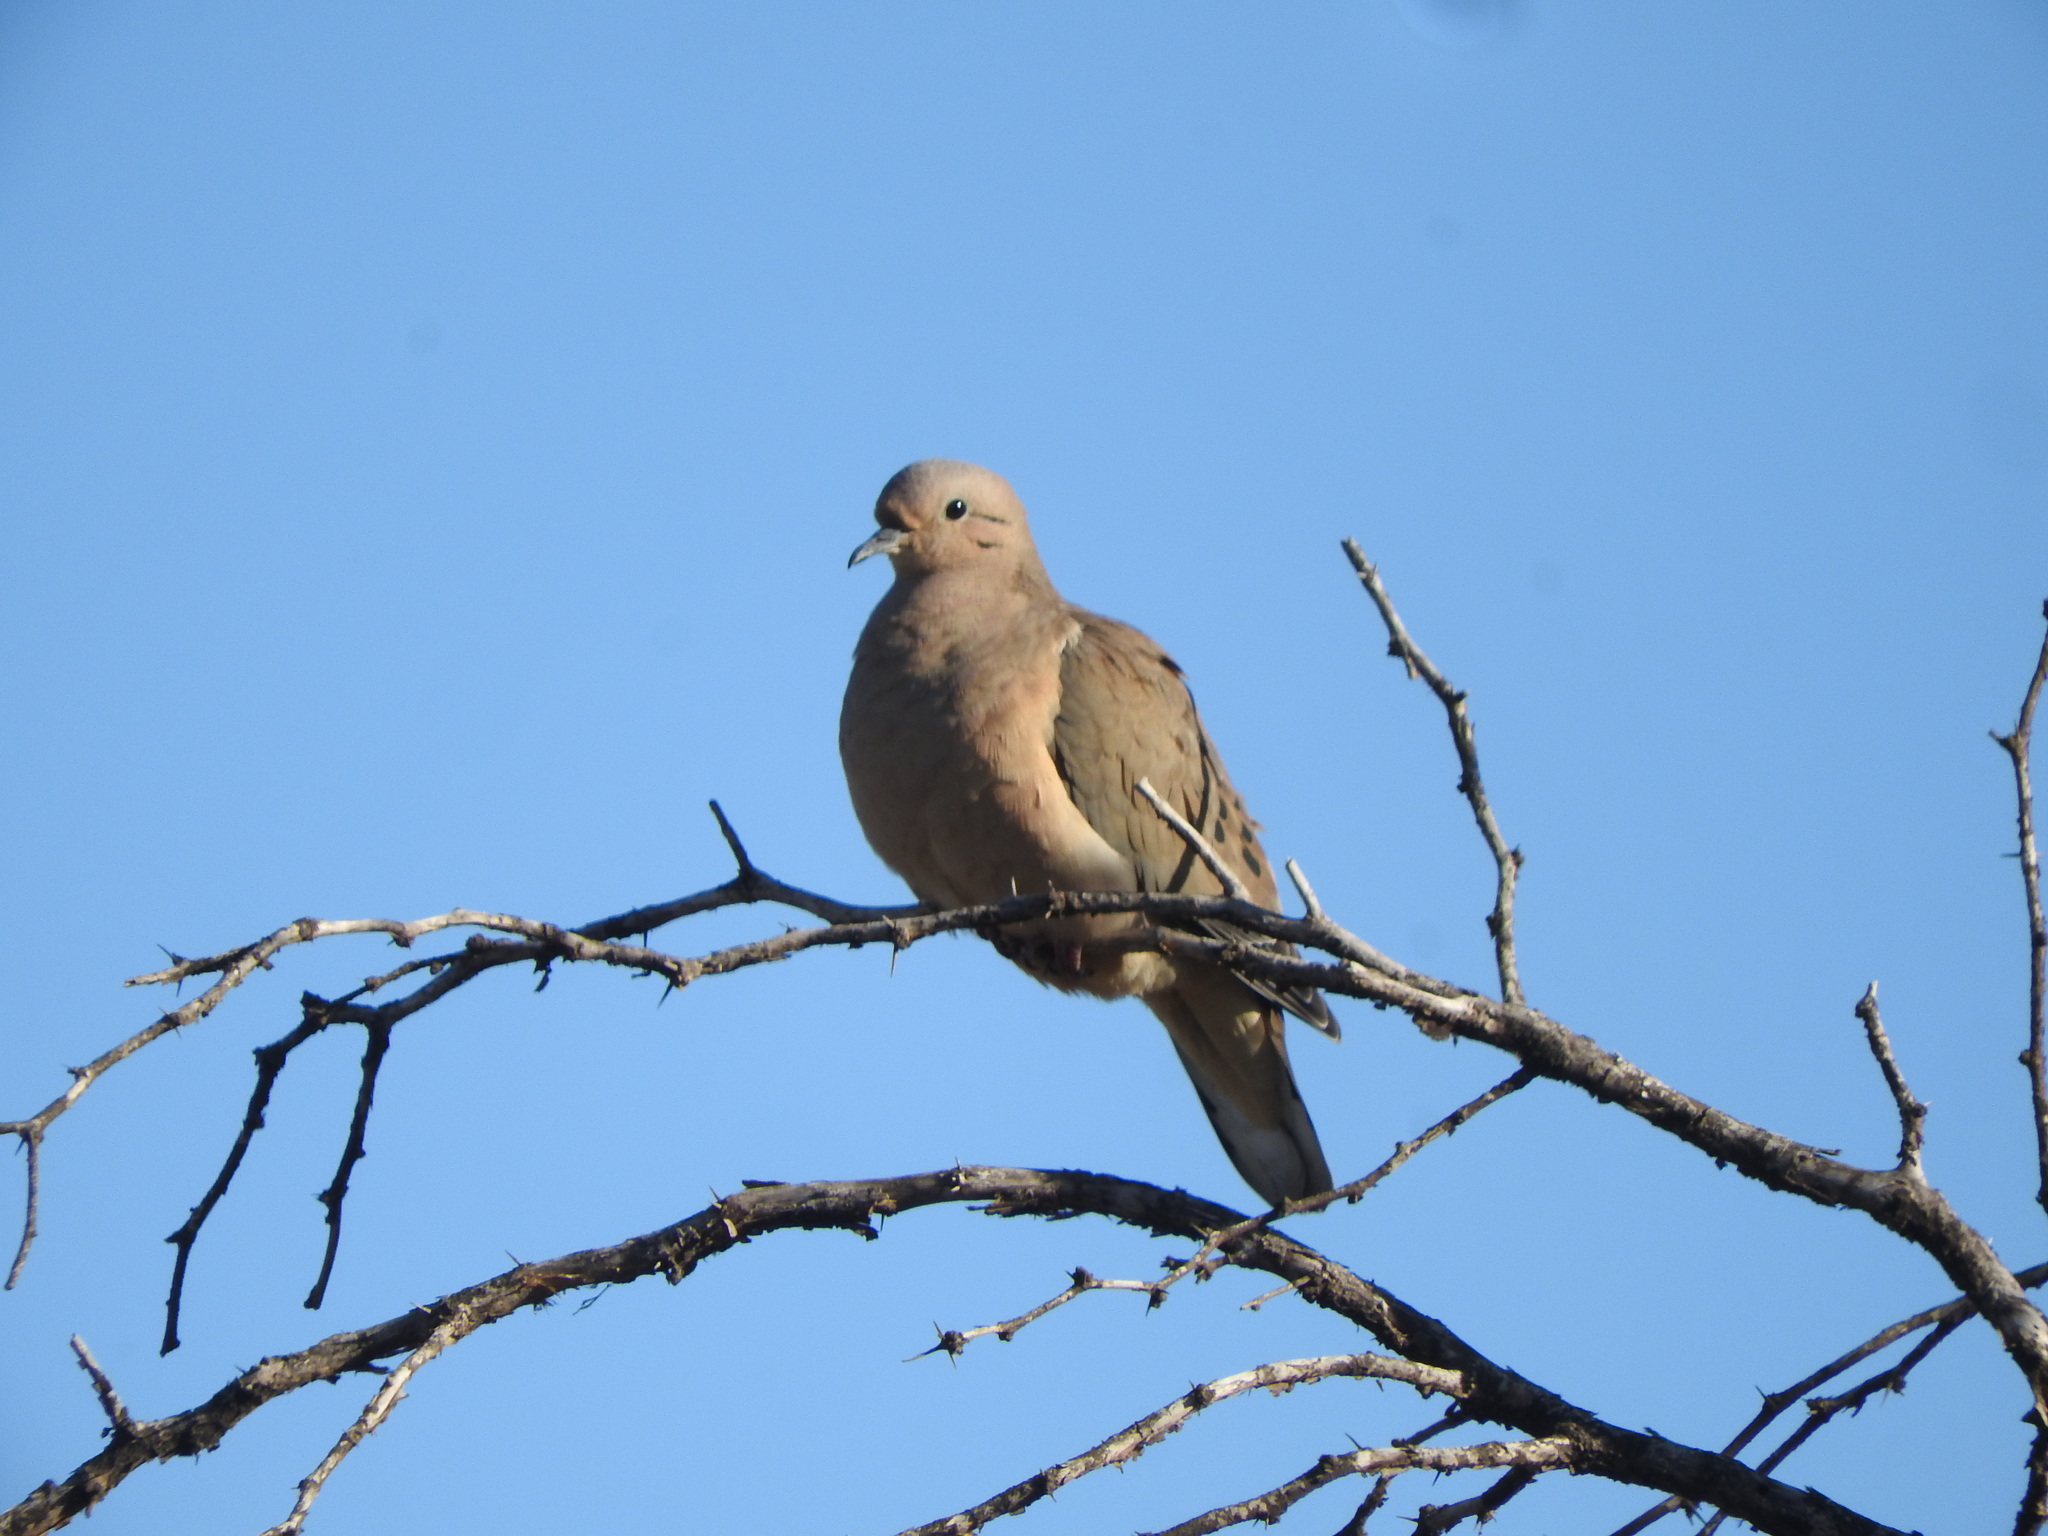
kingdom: Animalia
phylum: Chordata
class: Aves
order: Columbiformes
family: Columbidae
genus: Zenaida
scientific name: Zenaida auriculata
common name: Eared dove
